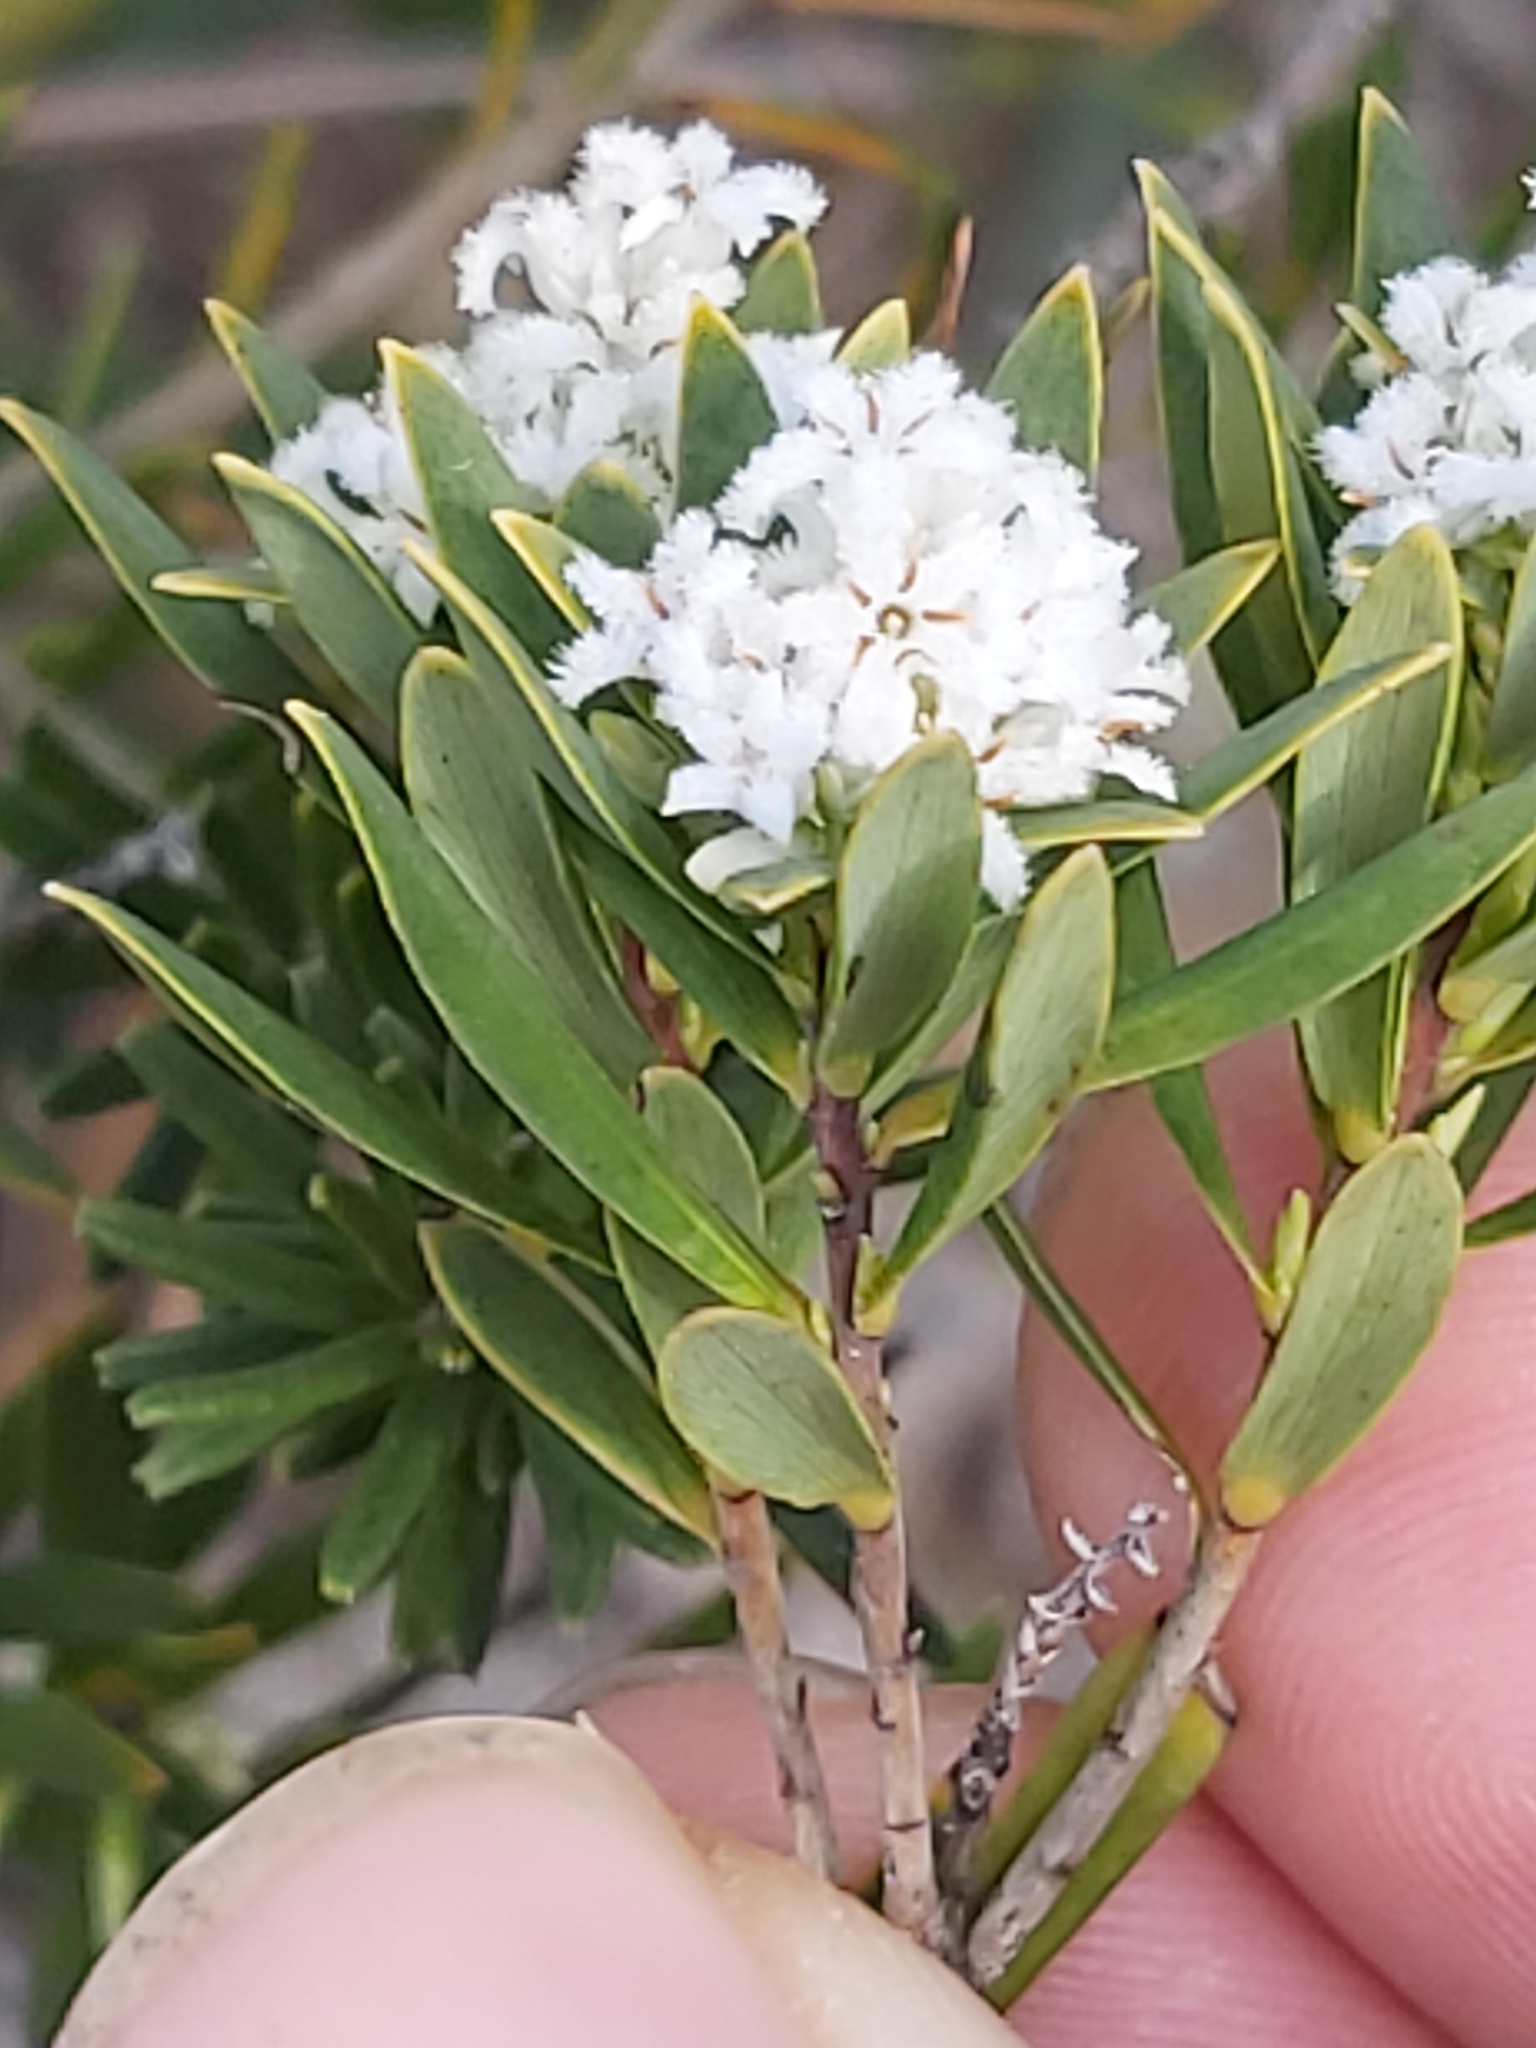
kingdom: Plantae
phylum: Tracheophyta
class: Magnoliopsida
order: Ericales
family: Ericaceae
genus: Leptecophylla
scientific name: Leptecophylla parvifolia
